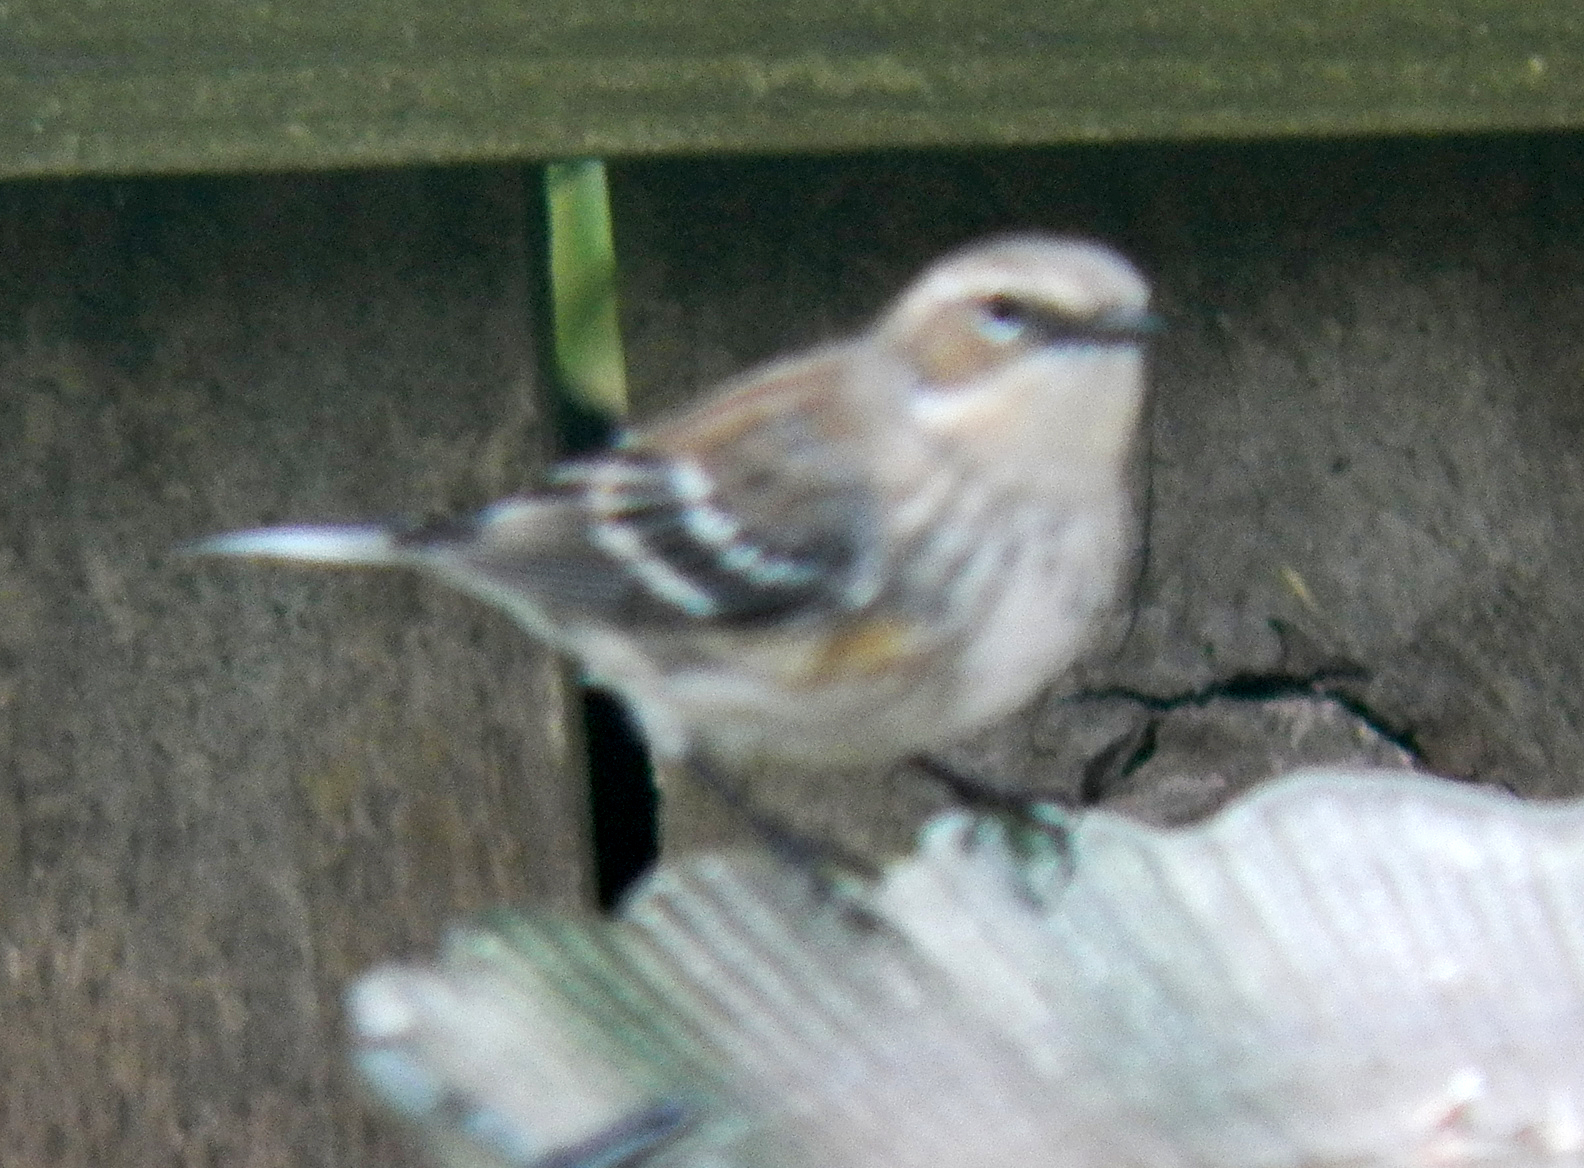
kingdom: Animalia
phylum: Chordata
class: Aves
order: Passeriformes
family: Parulidae
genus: Setophaga
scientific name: Setophaga coronata
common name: Myrtle warbler
